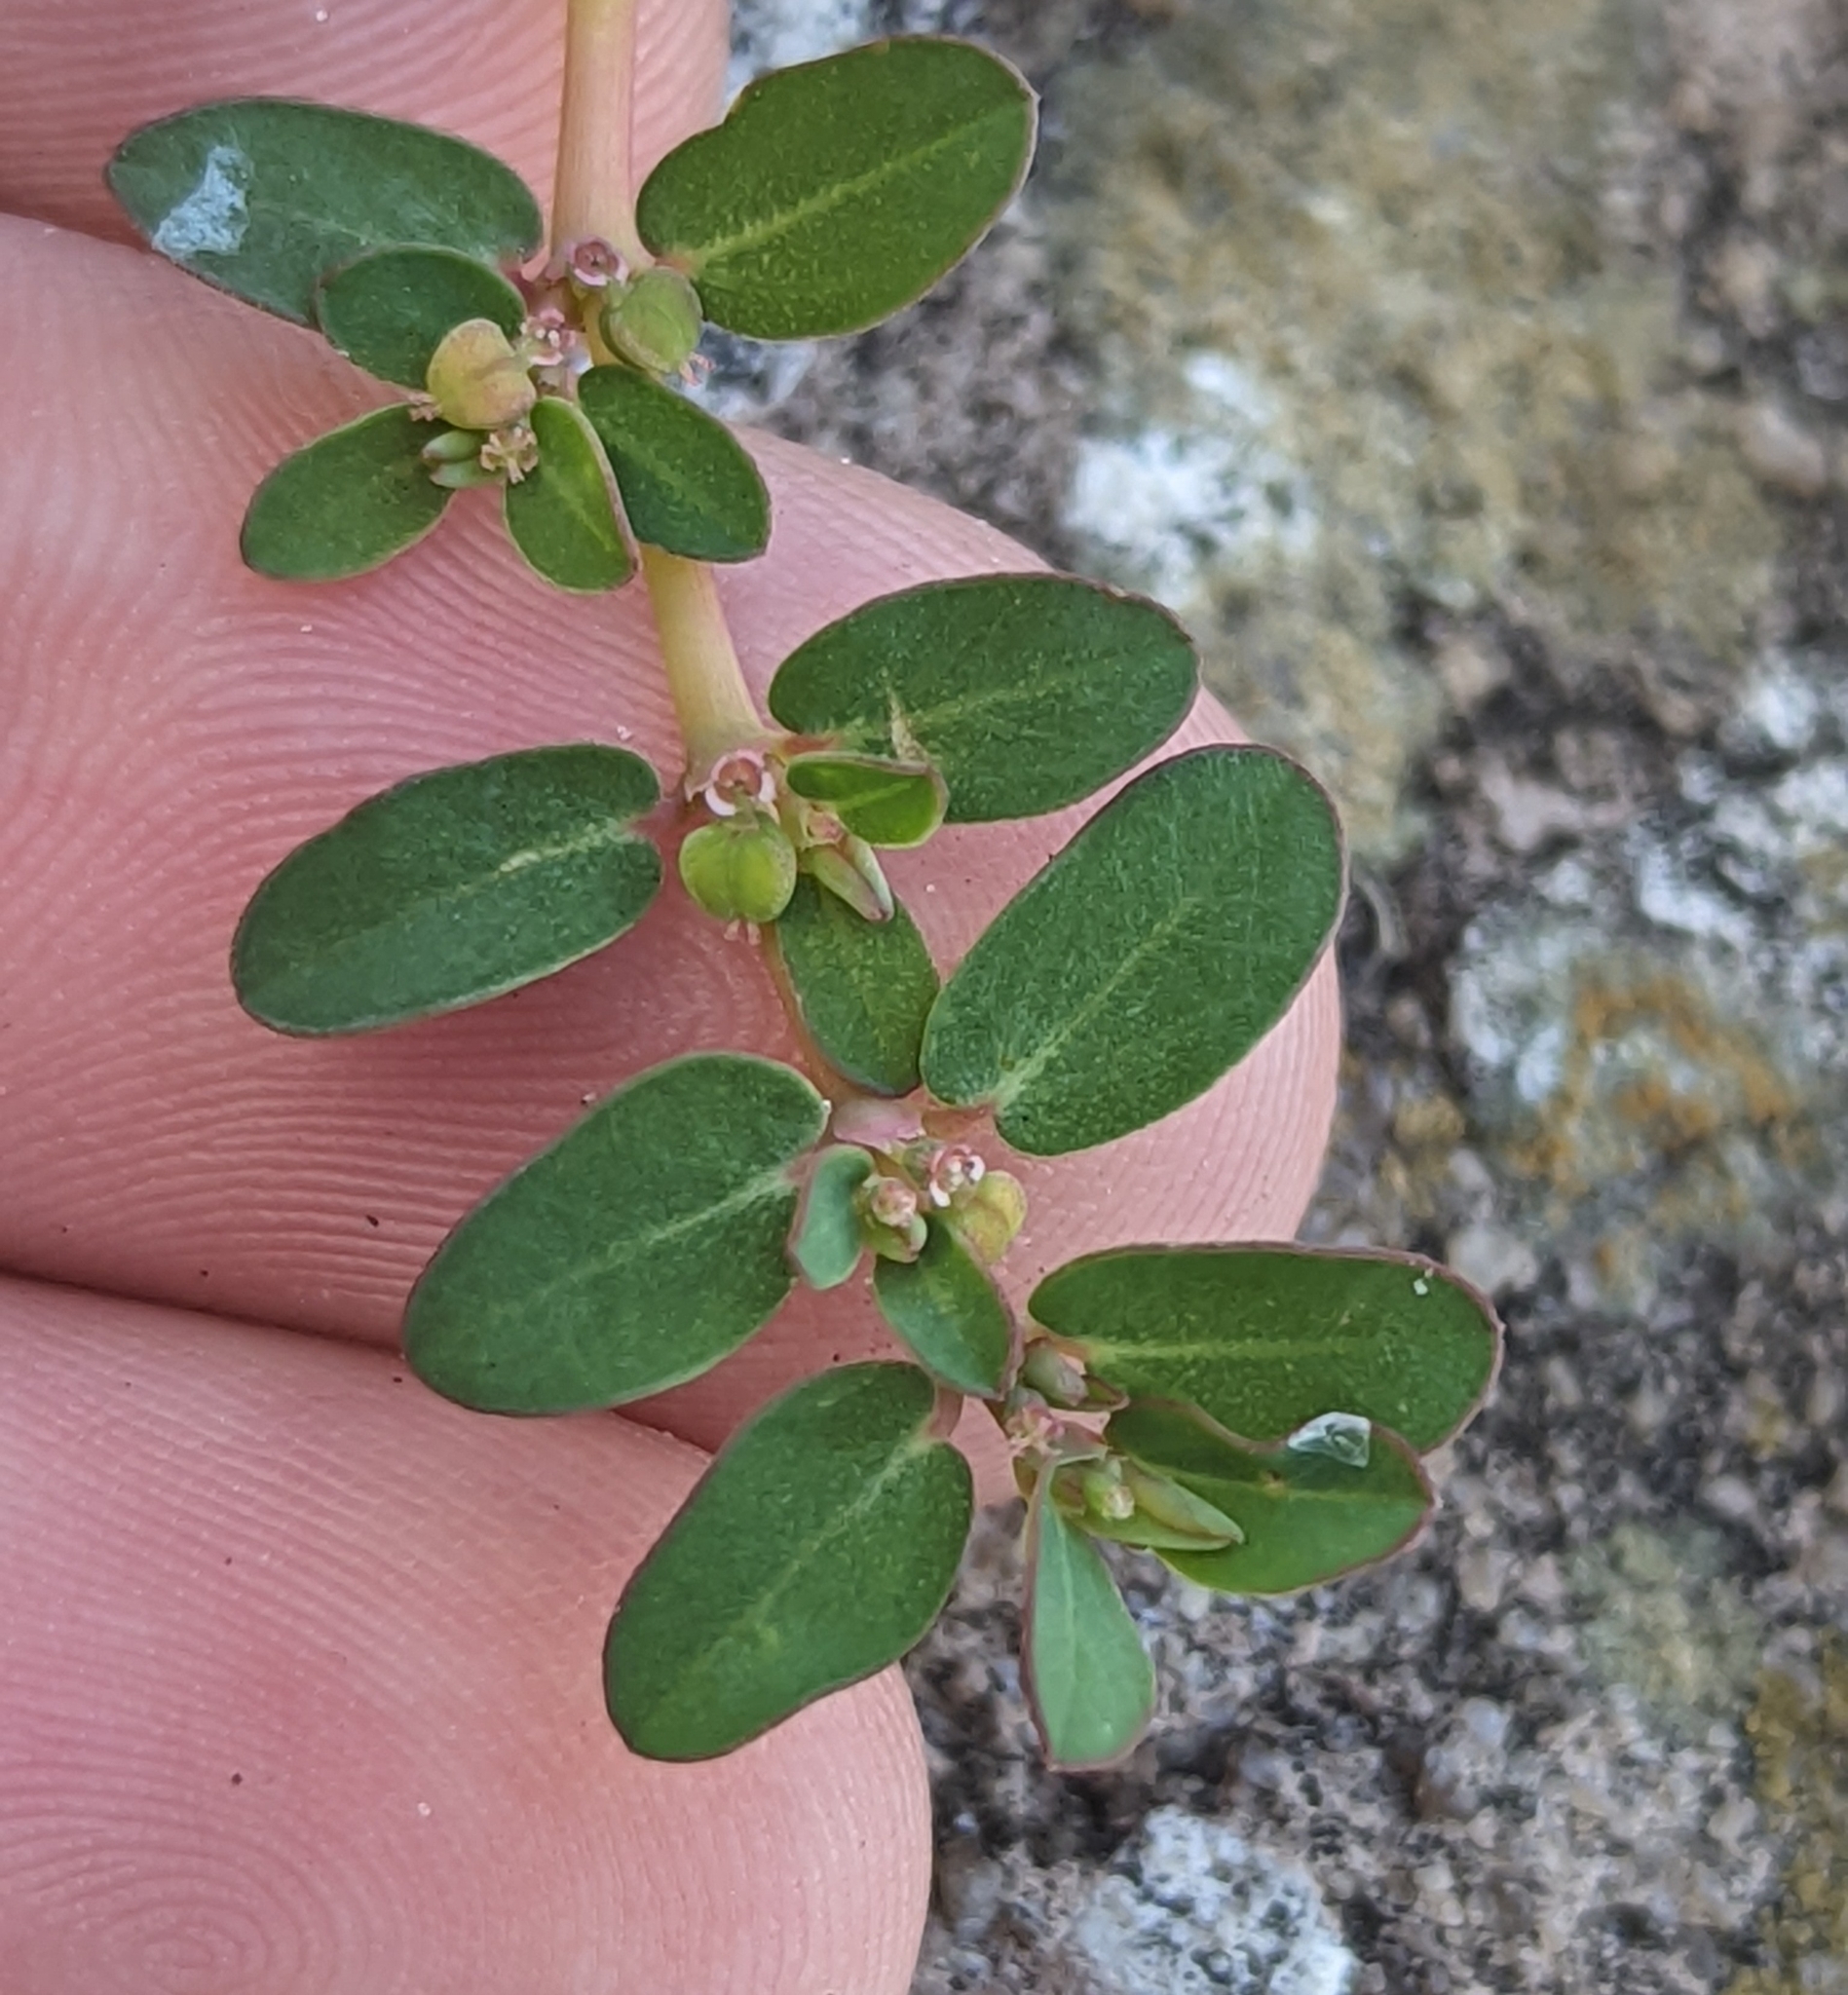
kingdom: Plantae
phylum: Tracheophyta
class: Magnoliopsida
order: Malpighiales
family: Euphorbiaceae
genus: Euphorbia
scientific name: Euphorbia blodgettii
